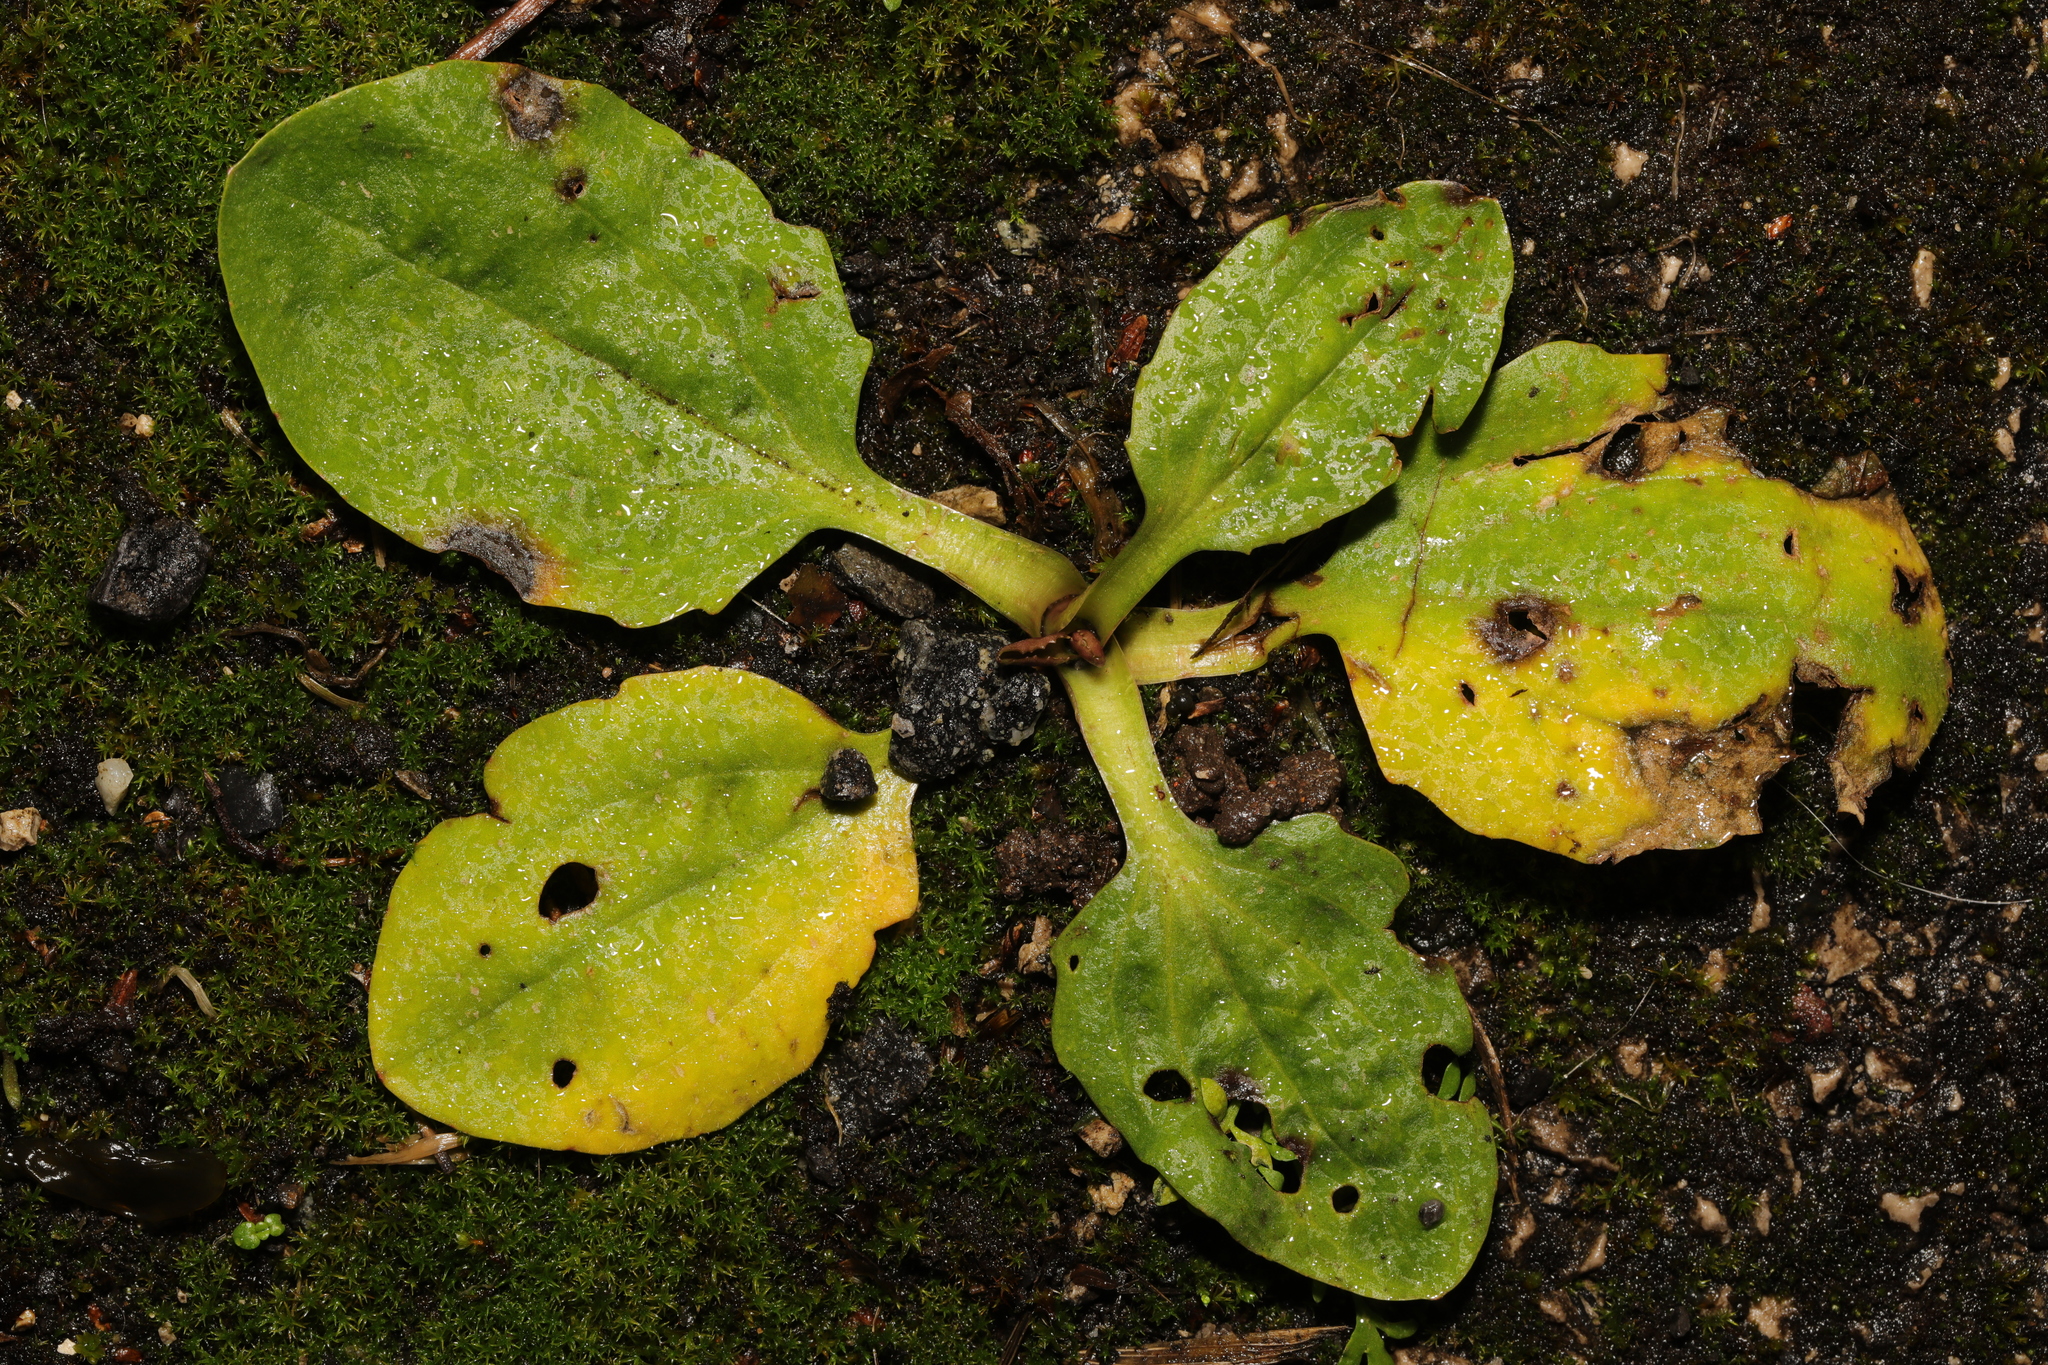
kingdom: Plantae
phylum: Tracheophyta
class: Magnoliopsida
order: Lamiales
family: Plantaginaceae
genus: Plantago
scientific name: Plantago major
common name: Common plantain
